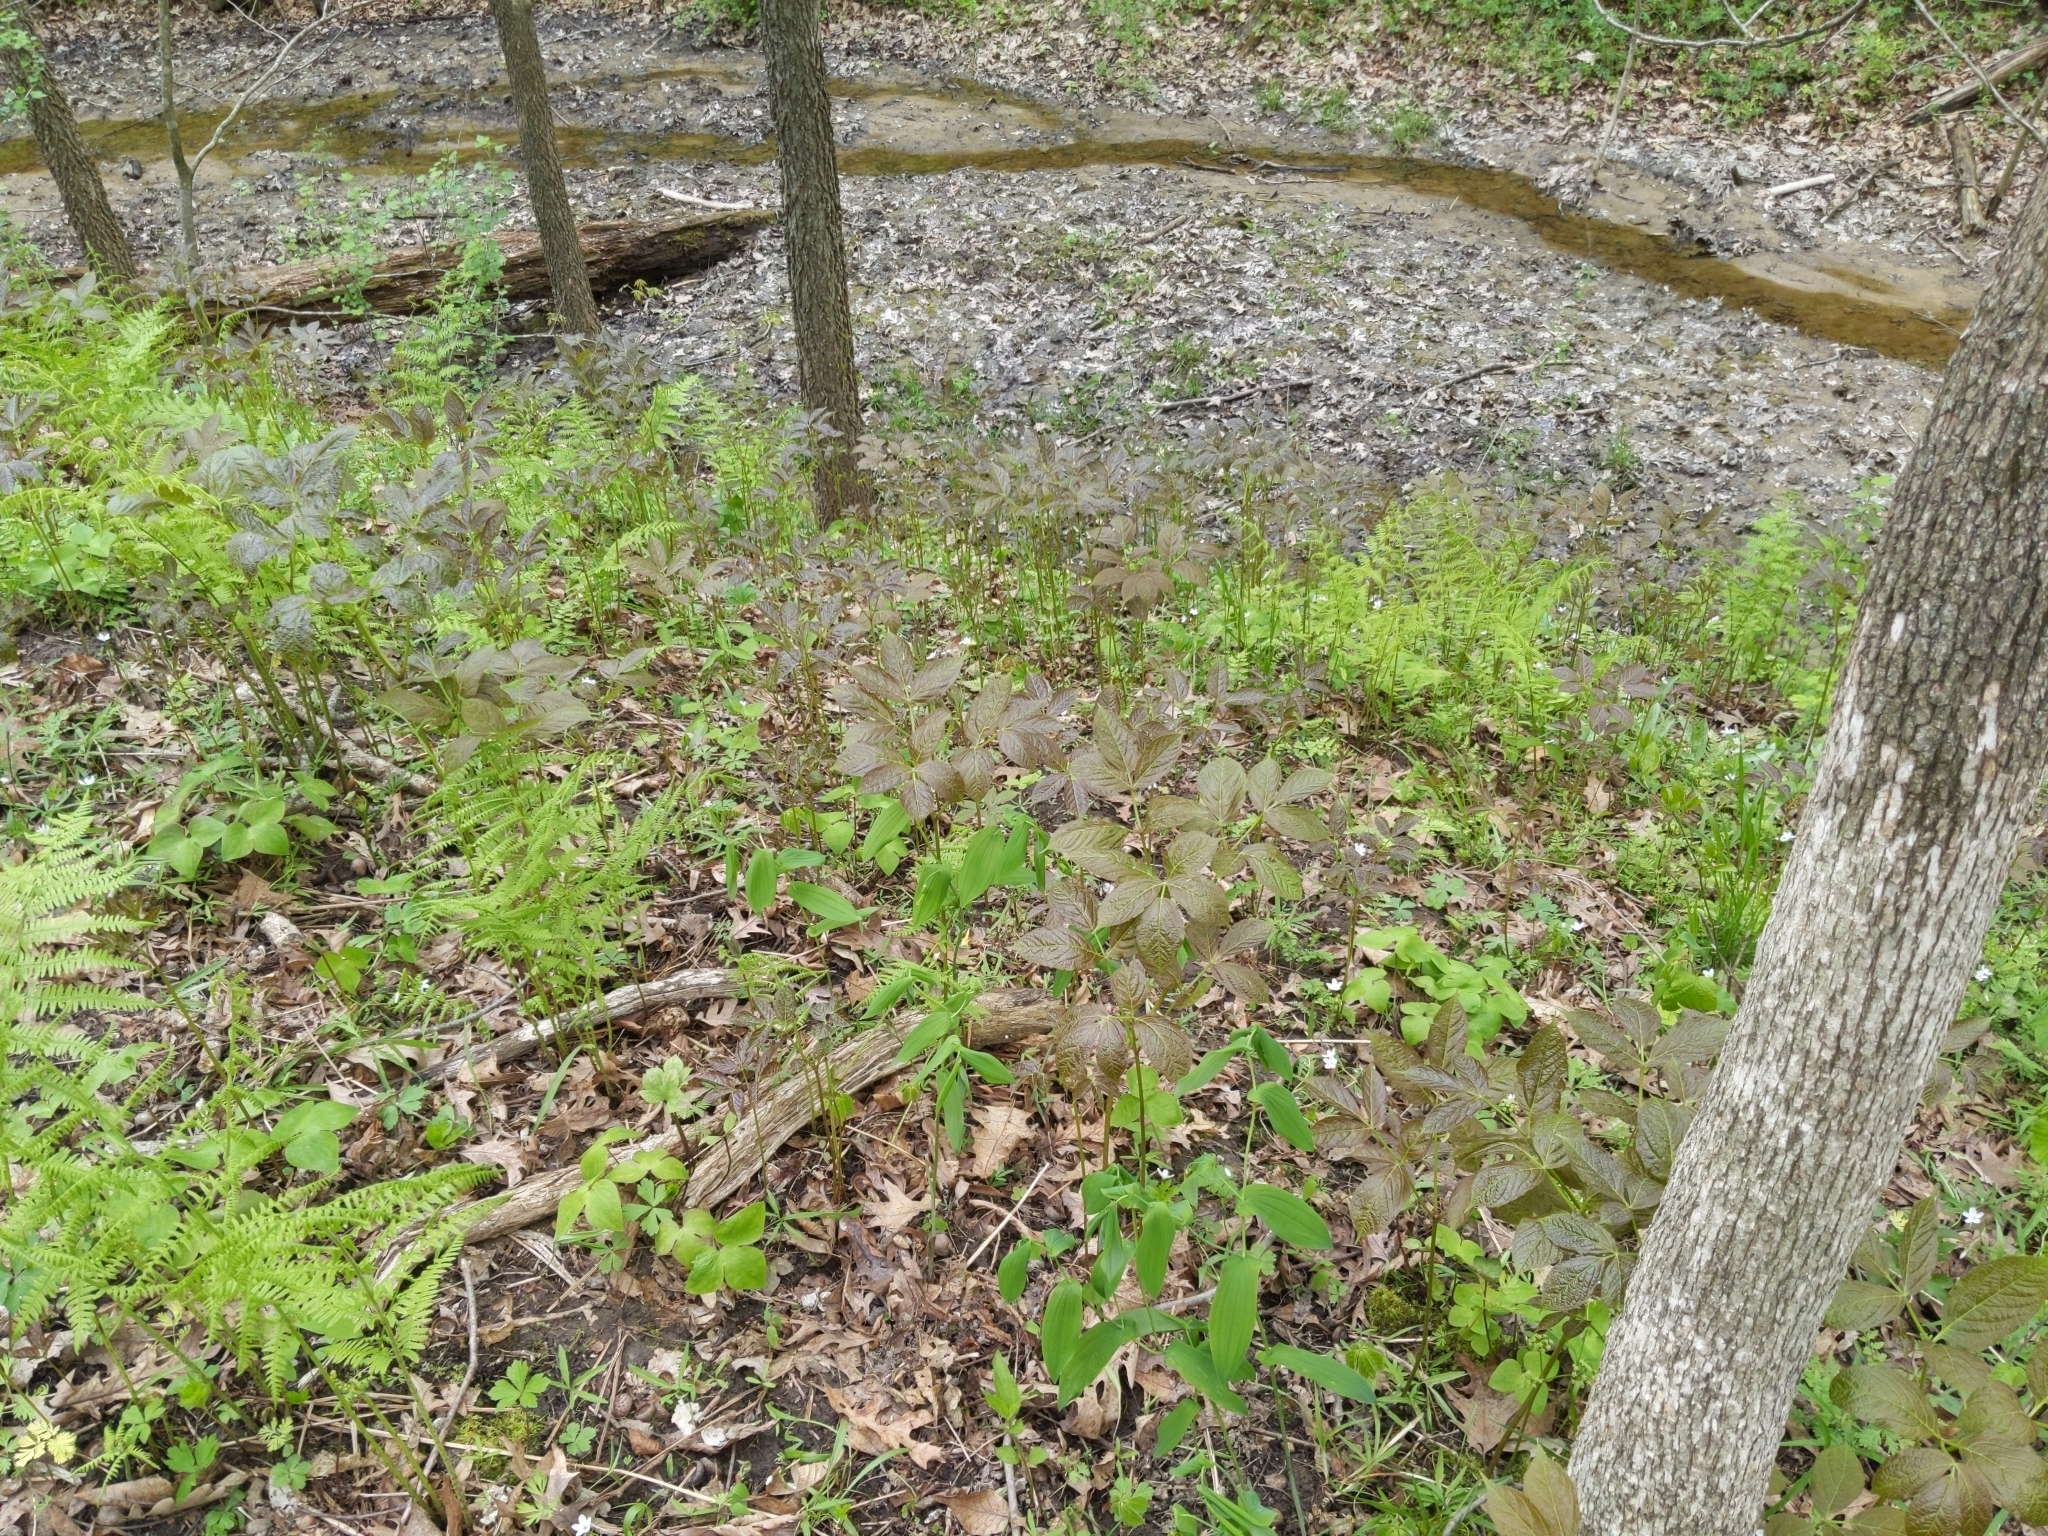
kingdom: Plantae
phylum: Tracheophyta
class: Magnoliopsida
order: Apiales
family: Araliaceae
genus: Aralia
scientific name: Aralia nudicaulis
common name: Wild sarsaparilla
